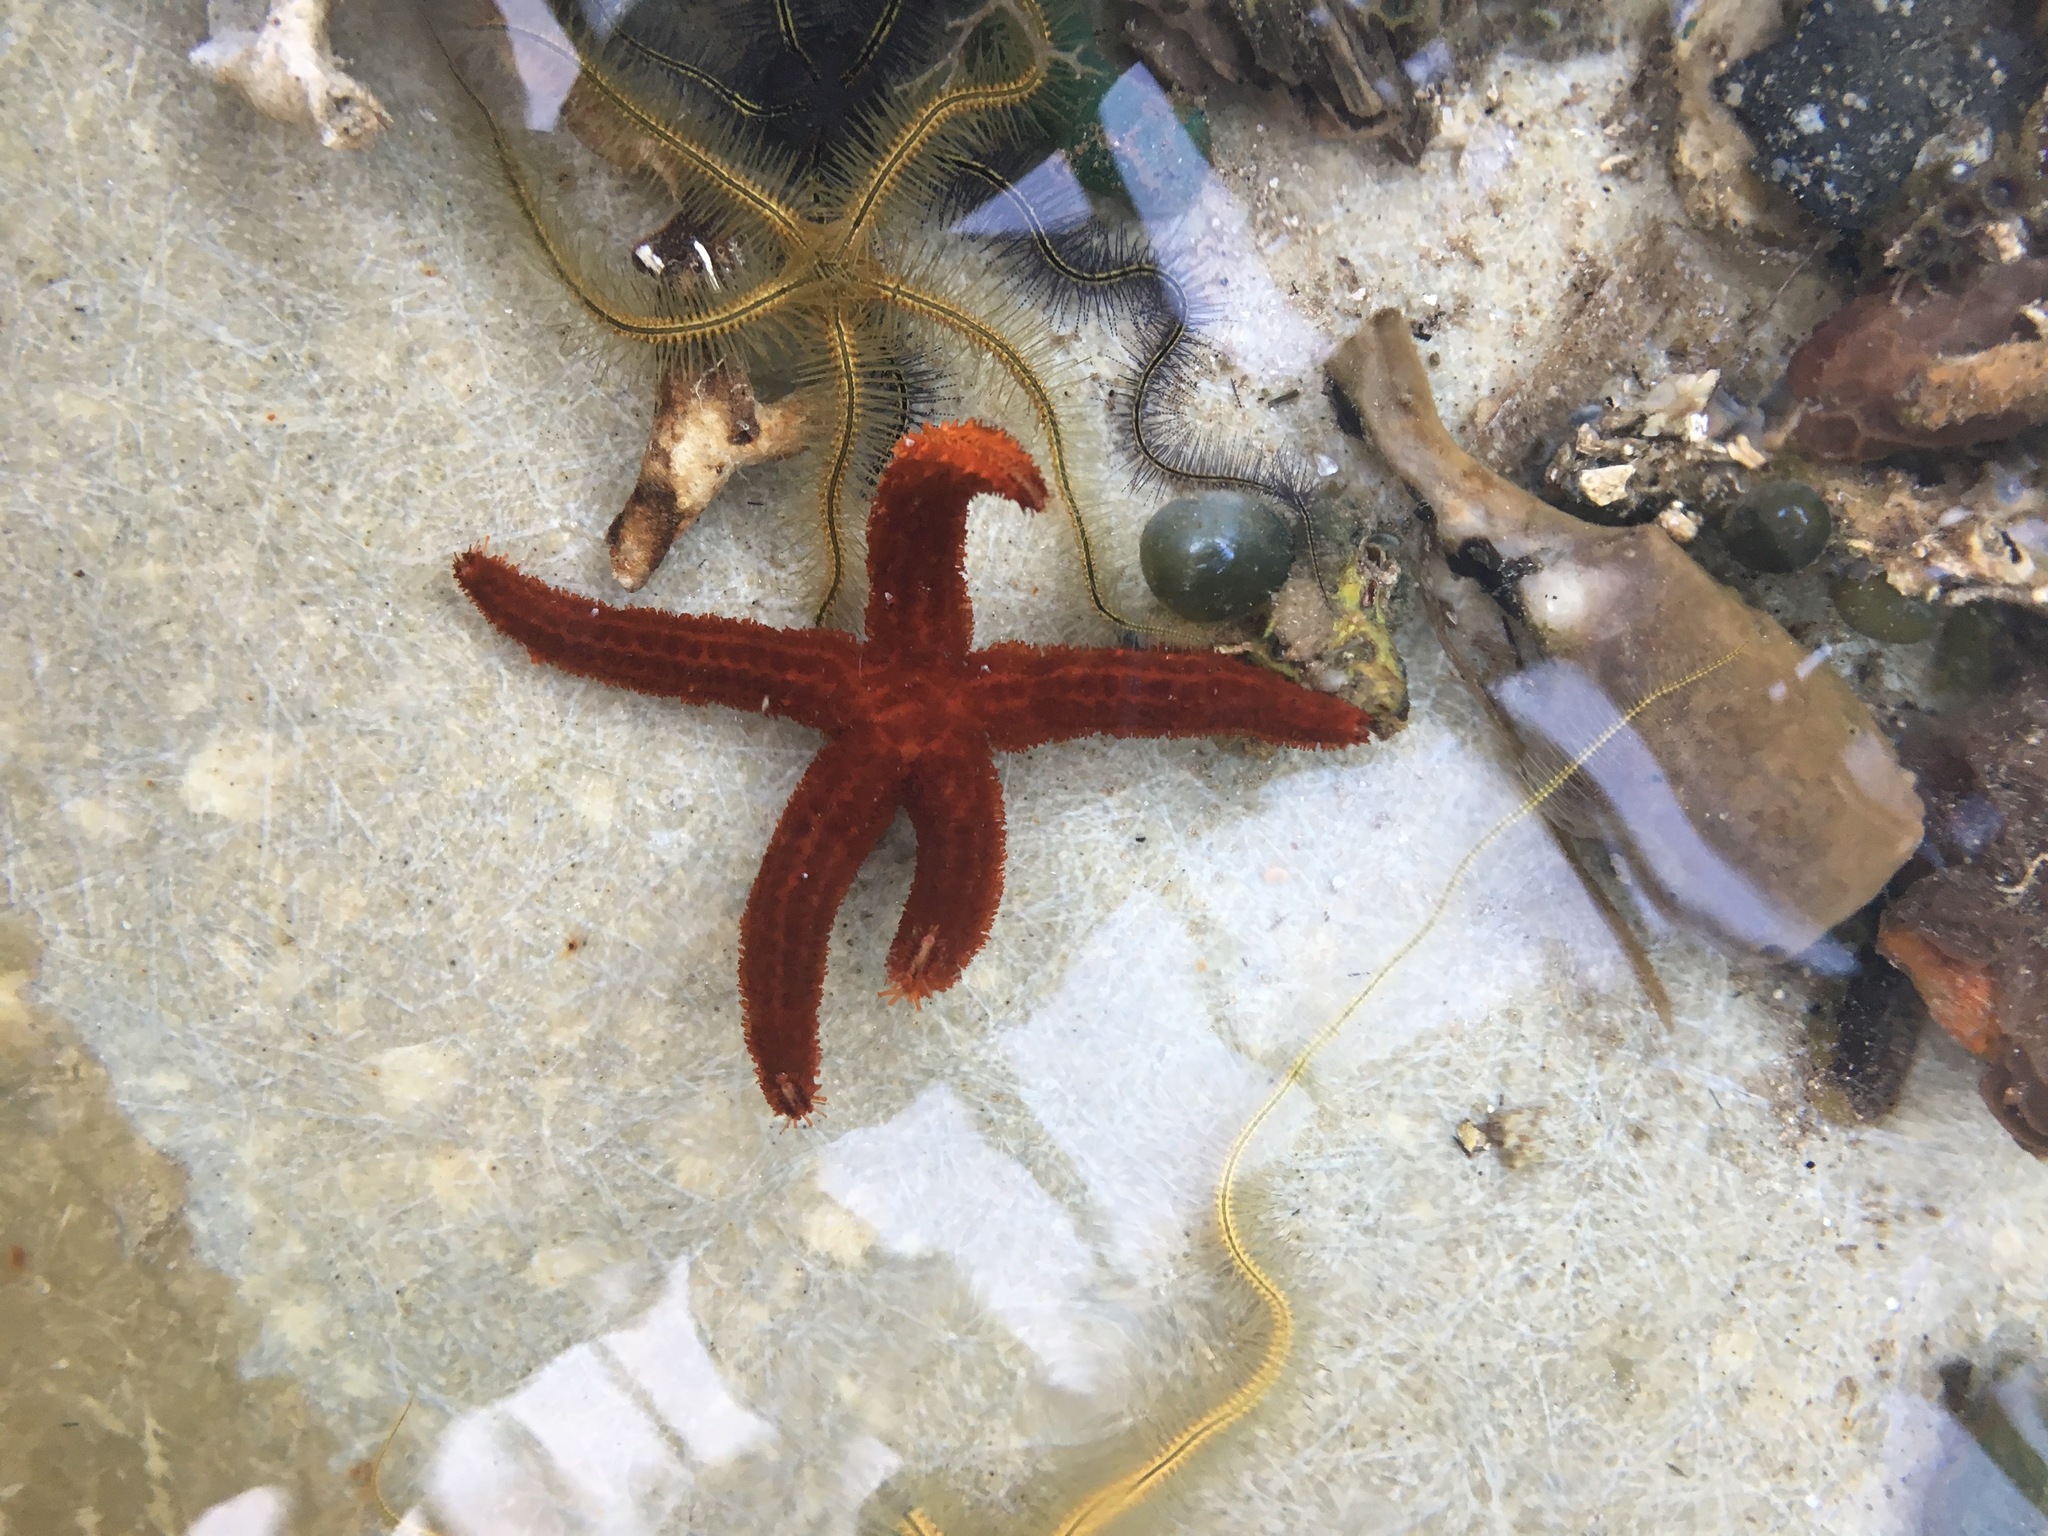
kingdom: Animalia
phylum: Echinodermata
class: Asteroidea
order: Valvatida
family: Ophidiasteridae
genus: Ophidiaster
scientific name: Ophidiaster guildingi
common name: Guilding's star
